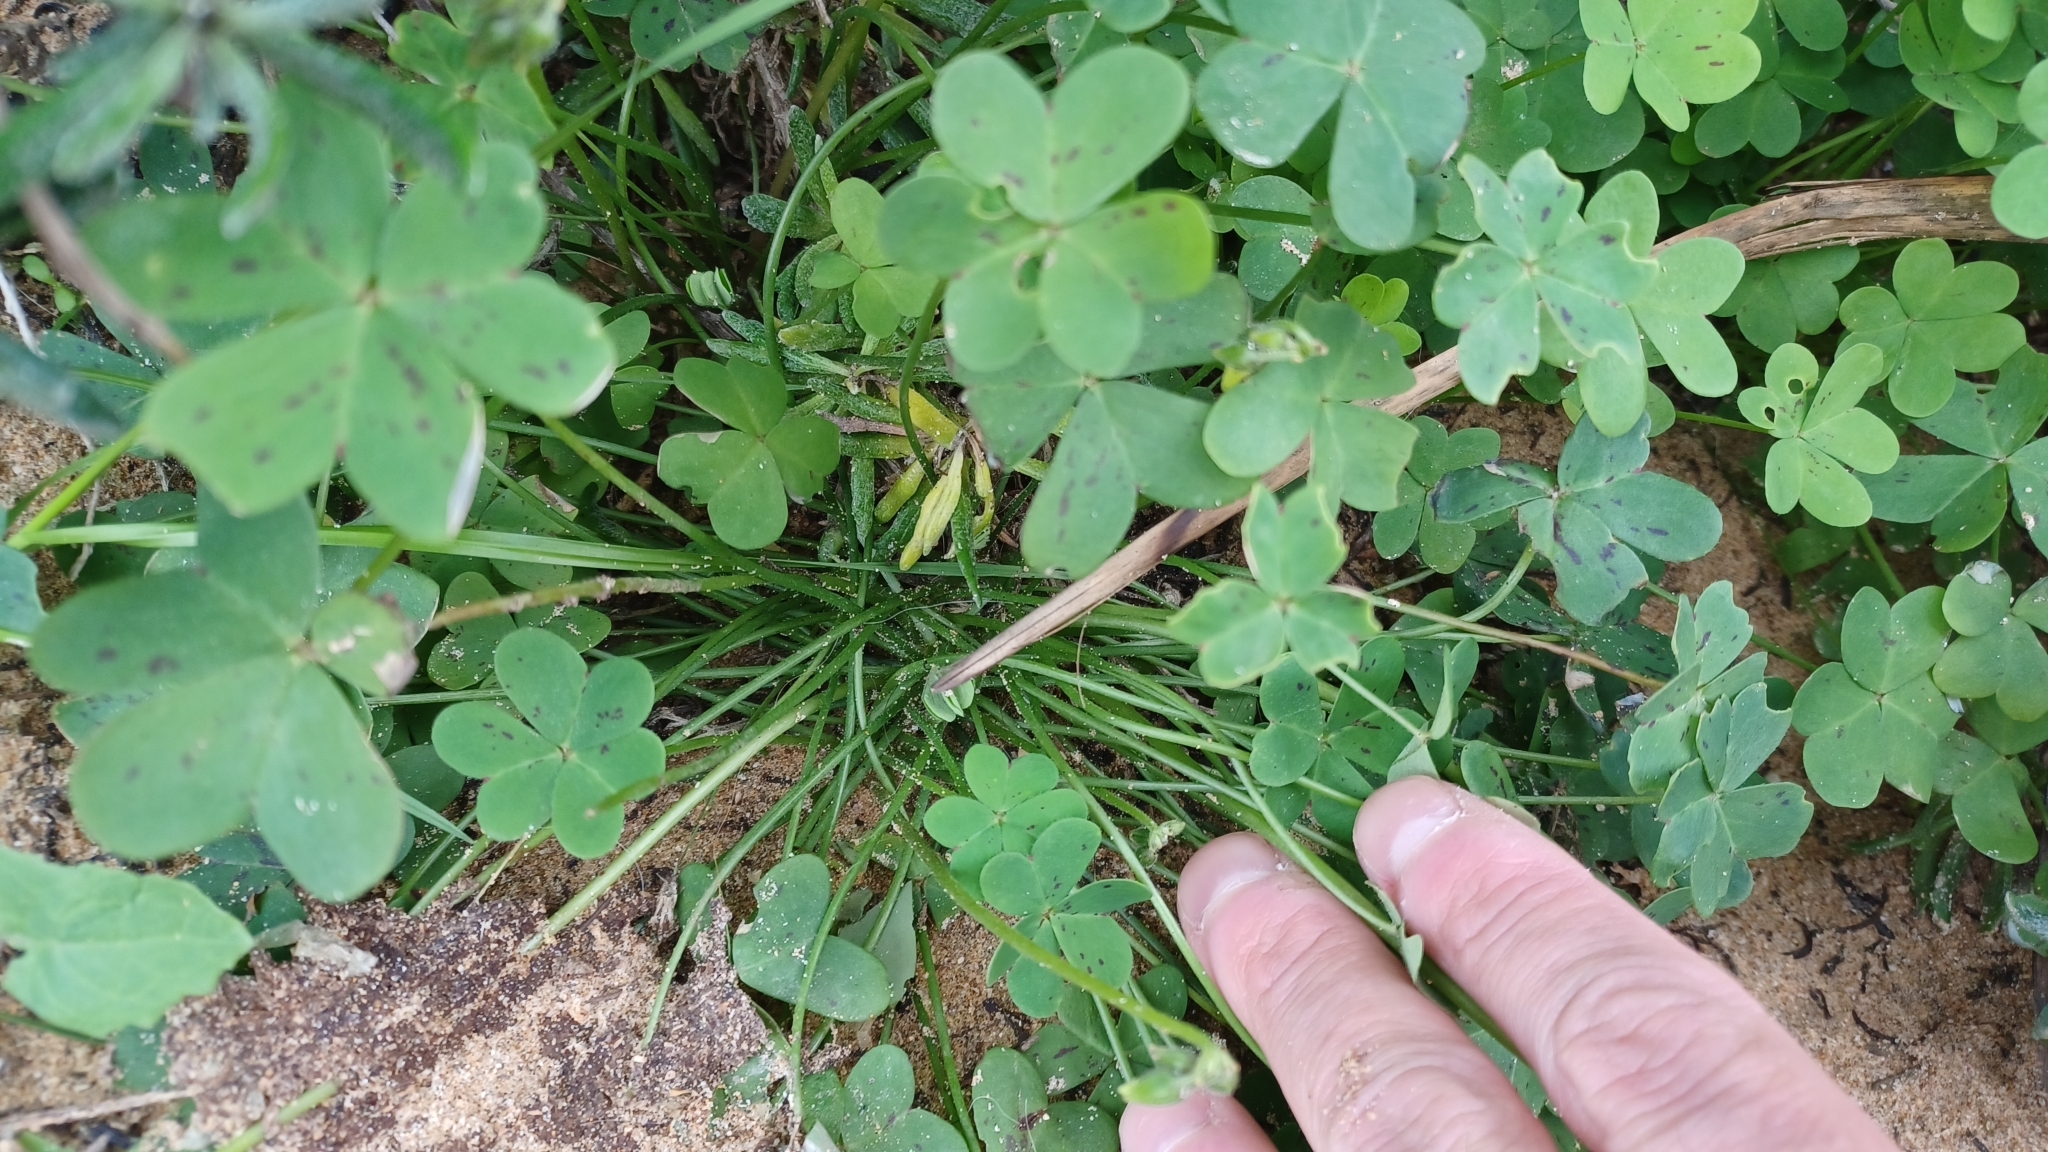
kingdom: Plantae
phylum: Tracheophyta
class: Magnoliopsida
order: Oxalidales
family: Oxalidaceae
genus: Oxalis
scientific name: Oxalis pes-caprae
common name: Bermuda-buttercup
